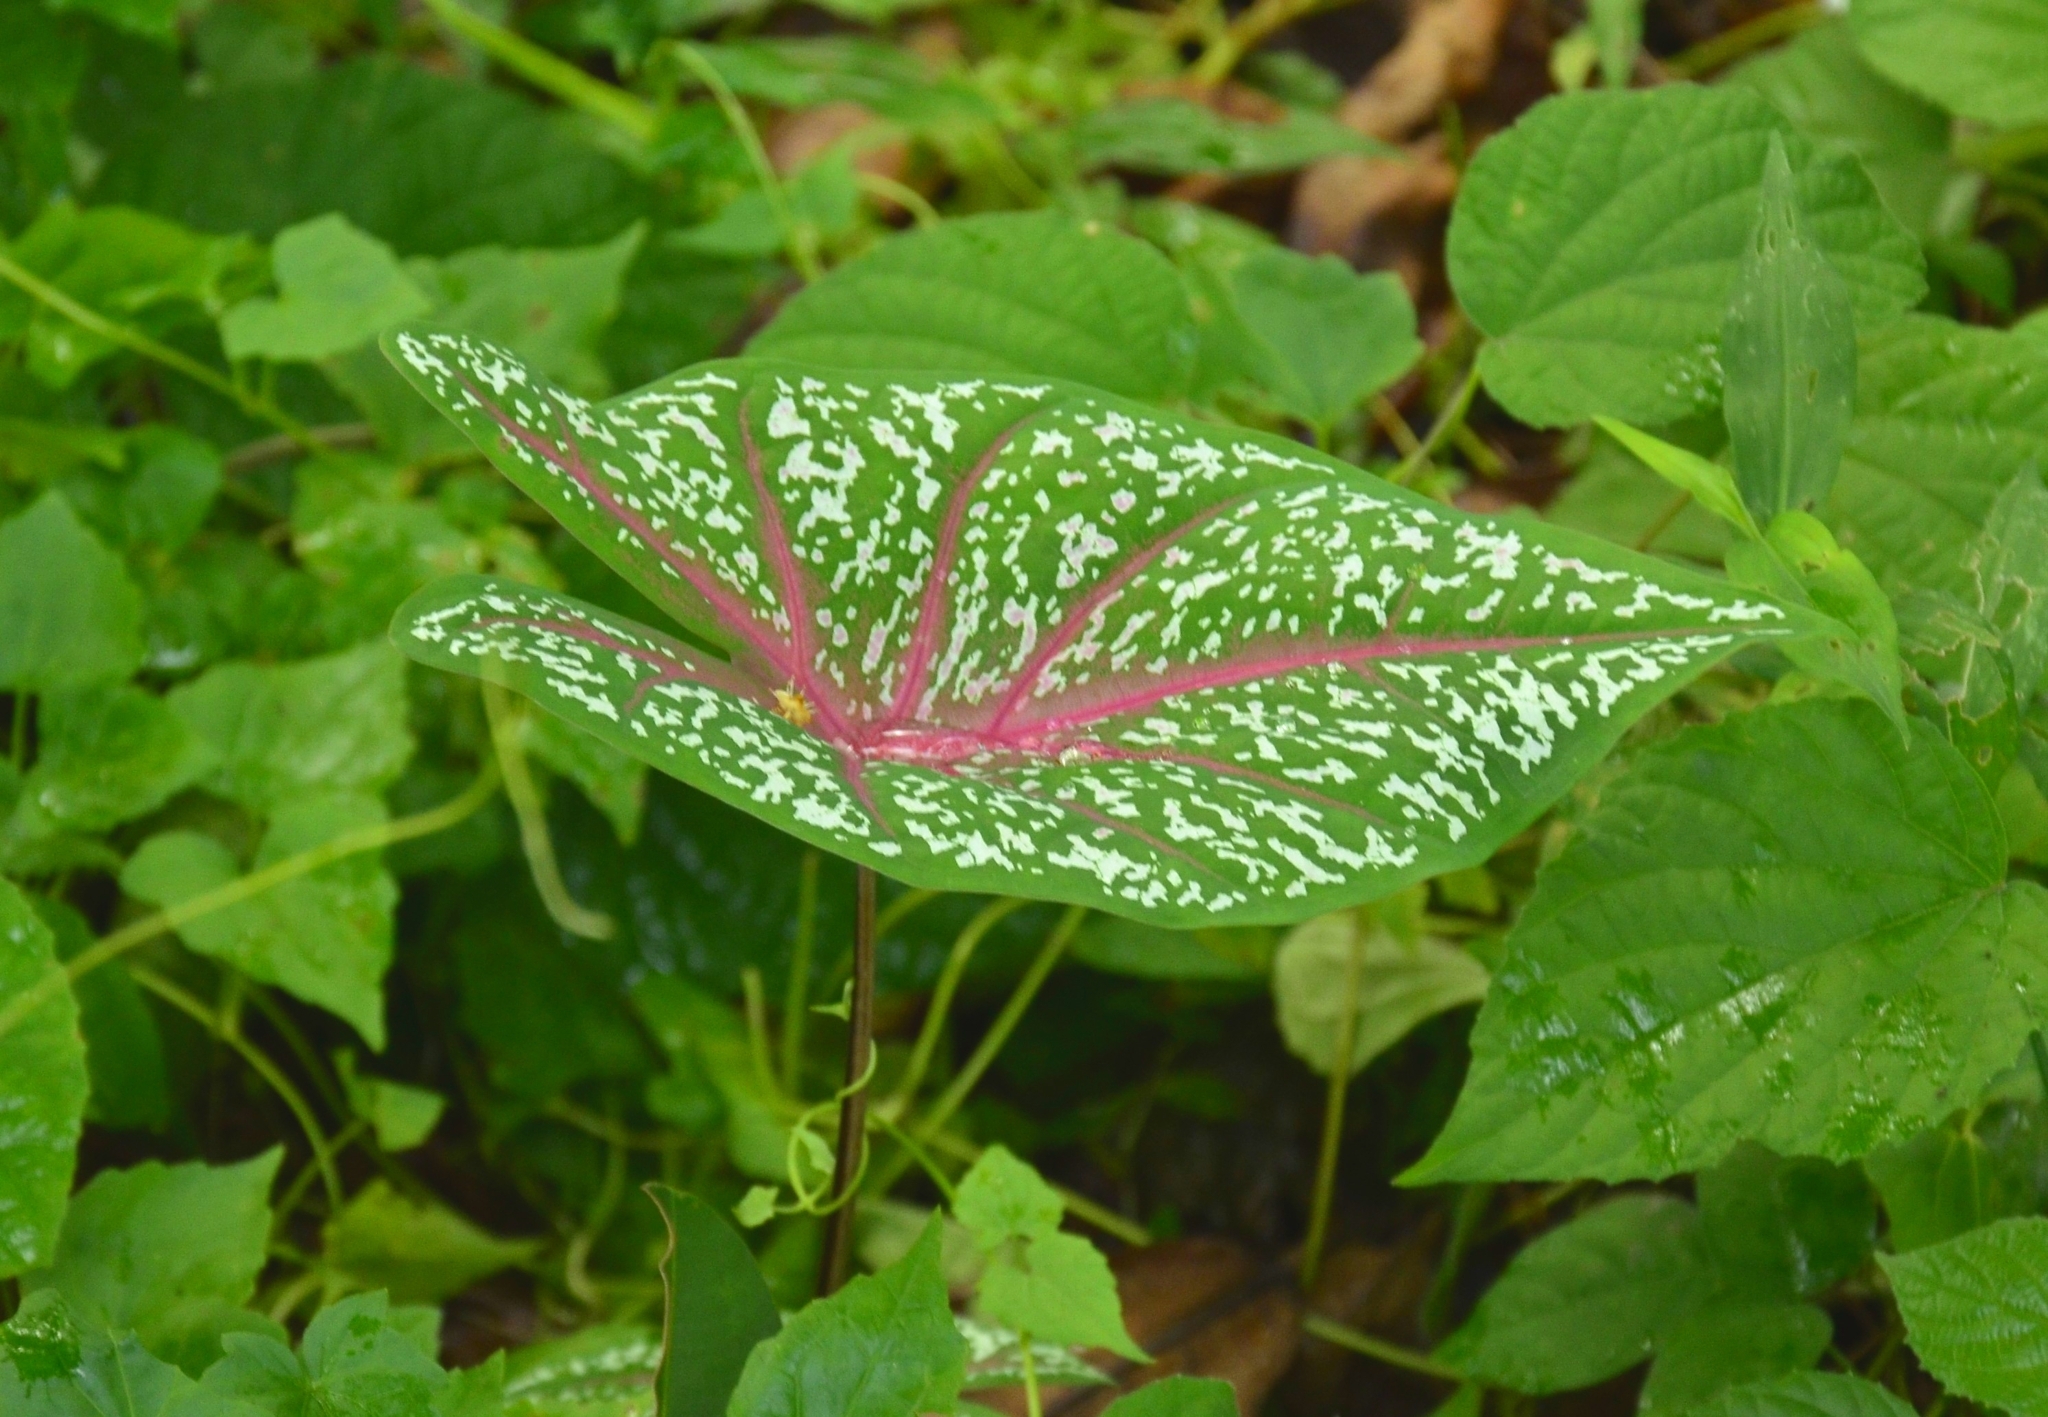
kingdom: Plantae
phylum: Tracheophyta
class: Liliopsida
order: Alismatales
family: Araceae
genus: Caladium
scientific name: Caladium bicolor
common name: Artist's pallet
